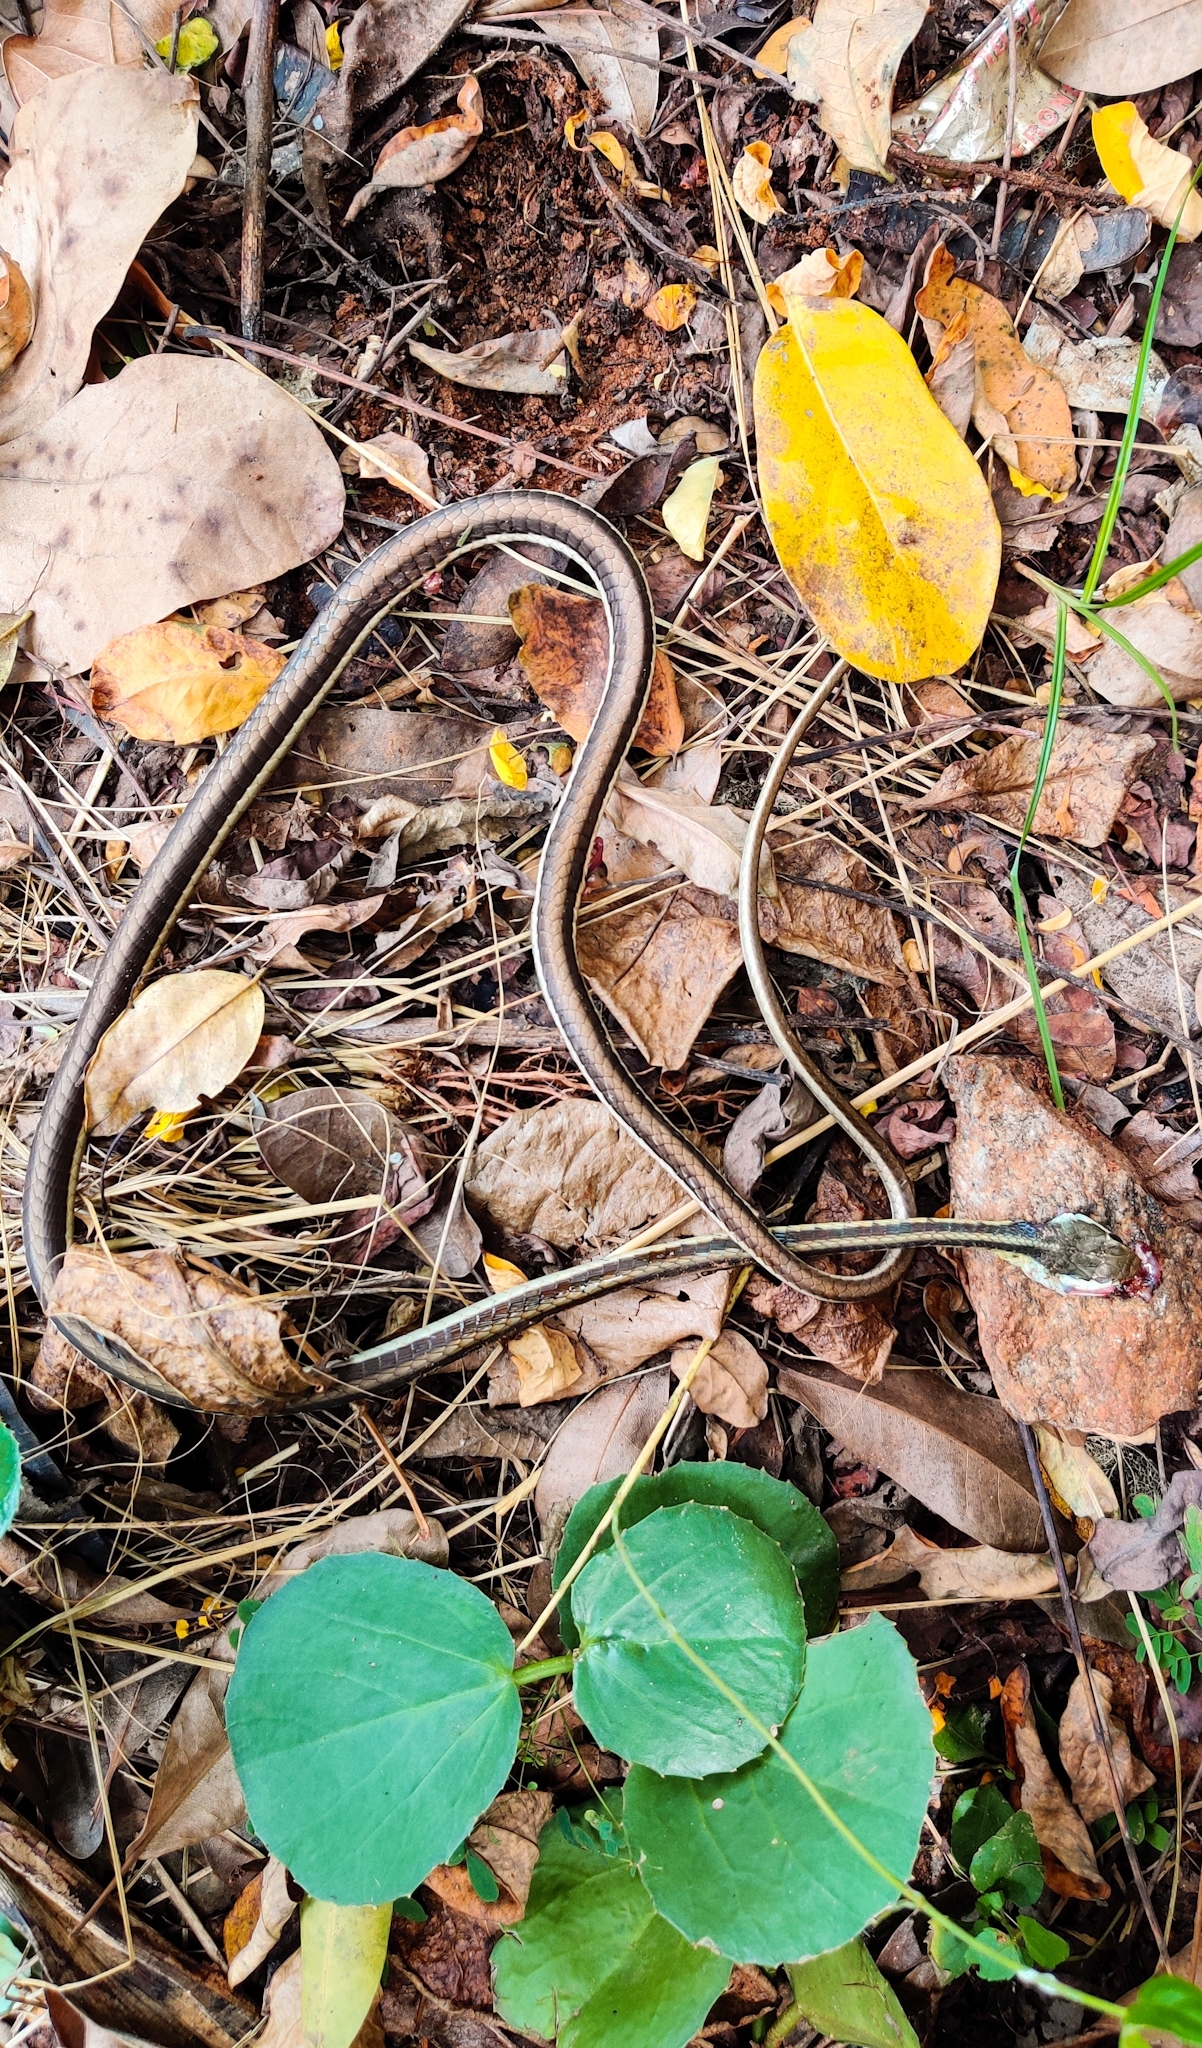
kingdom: Animalia
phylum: Chordata
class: Squamata
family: Colubridae
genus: Dendrelaphis
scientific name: Dendrelaphis tristis
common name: Daudin's bronzeback
